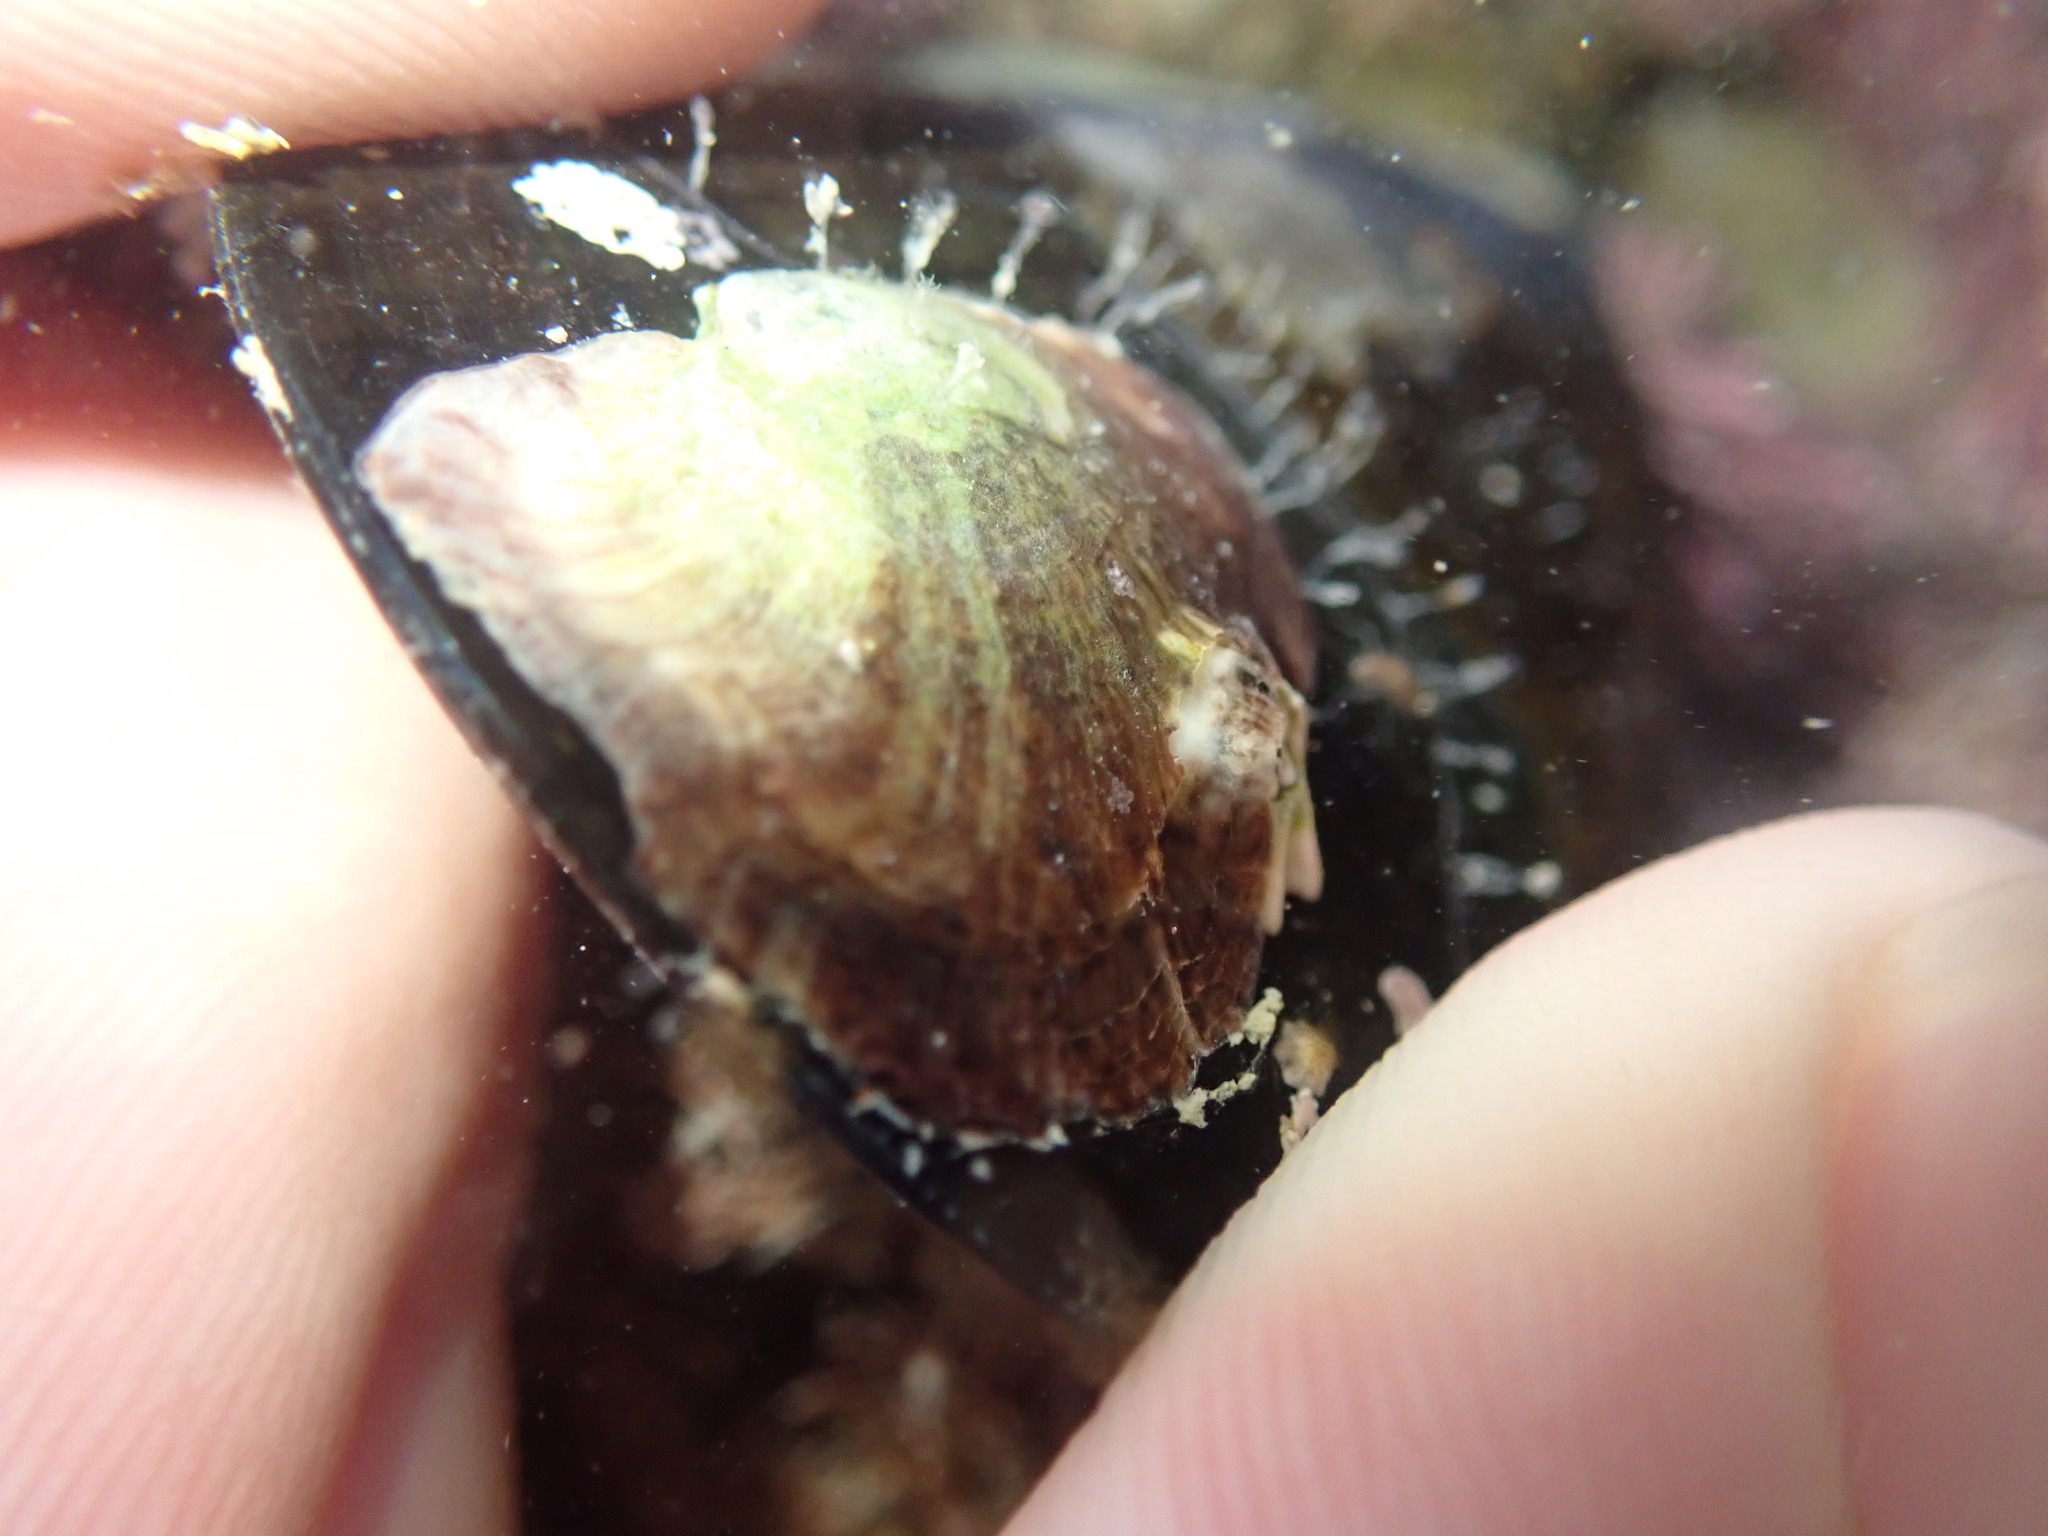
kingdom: Animalia
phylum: Mollusca
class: Bivalvia
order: Ostreida
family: Ostreidae
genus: Magallana
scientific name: Magallana gigas
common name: Pacific oyster
